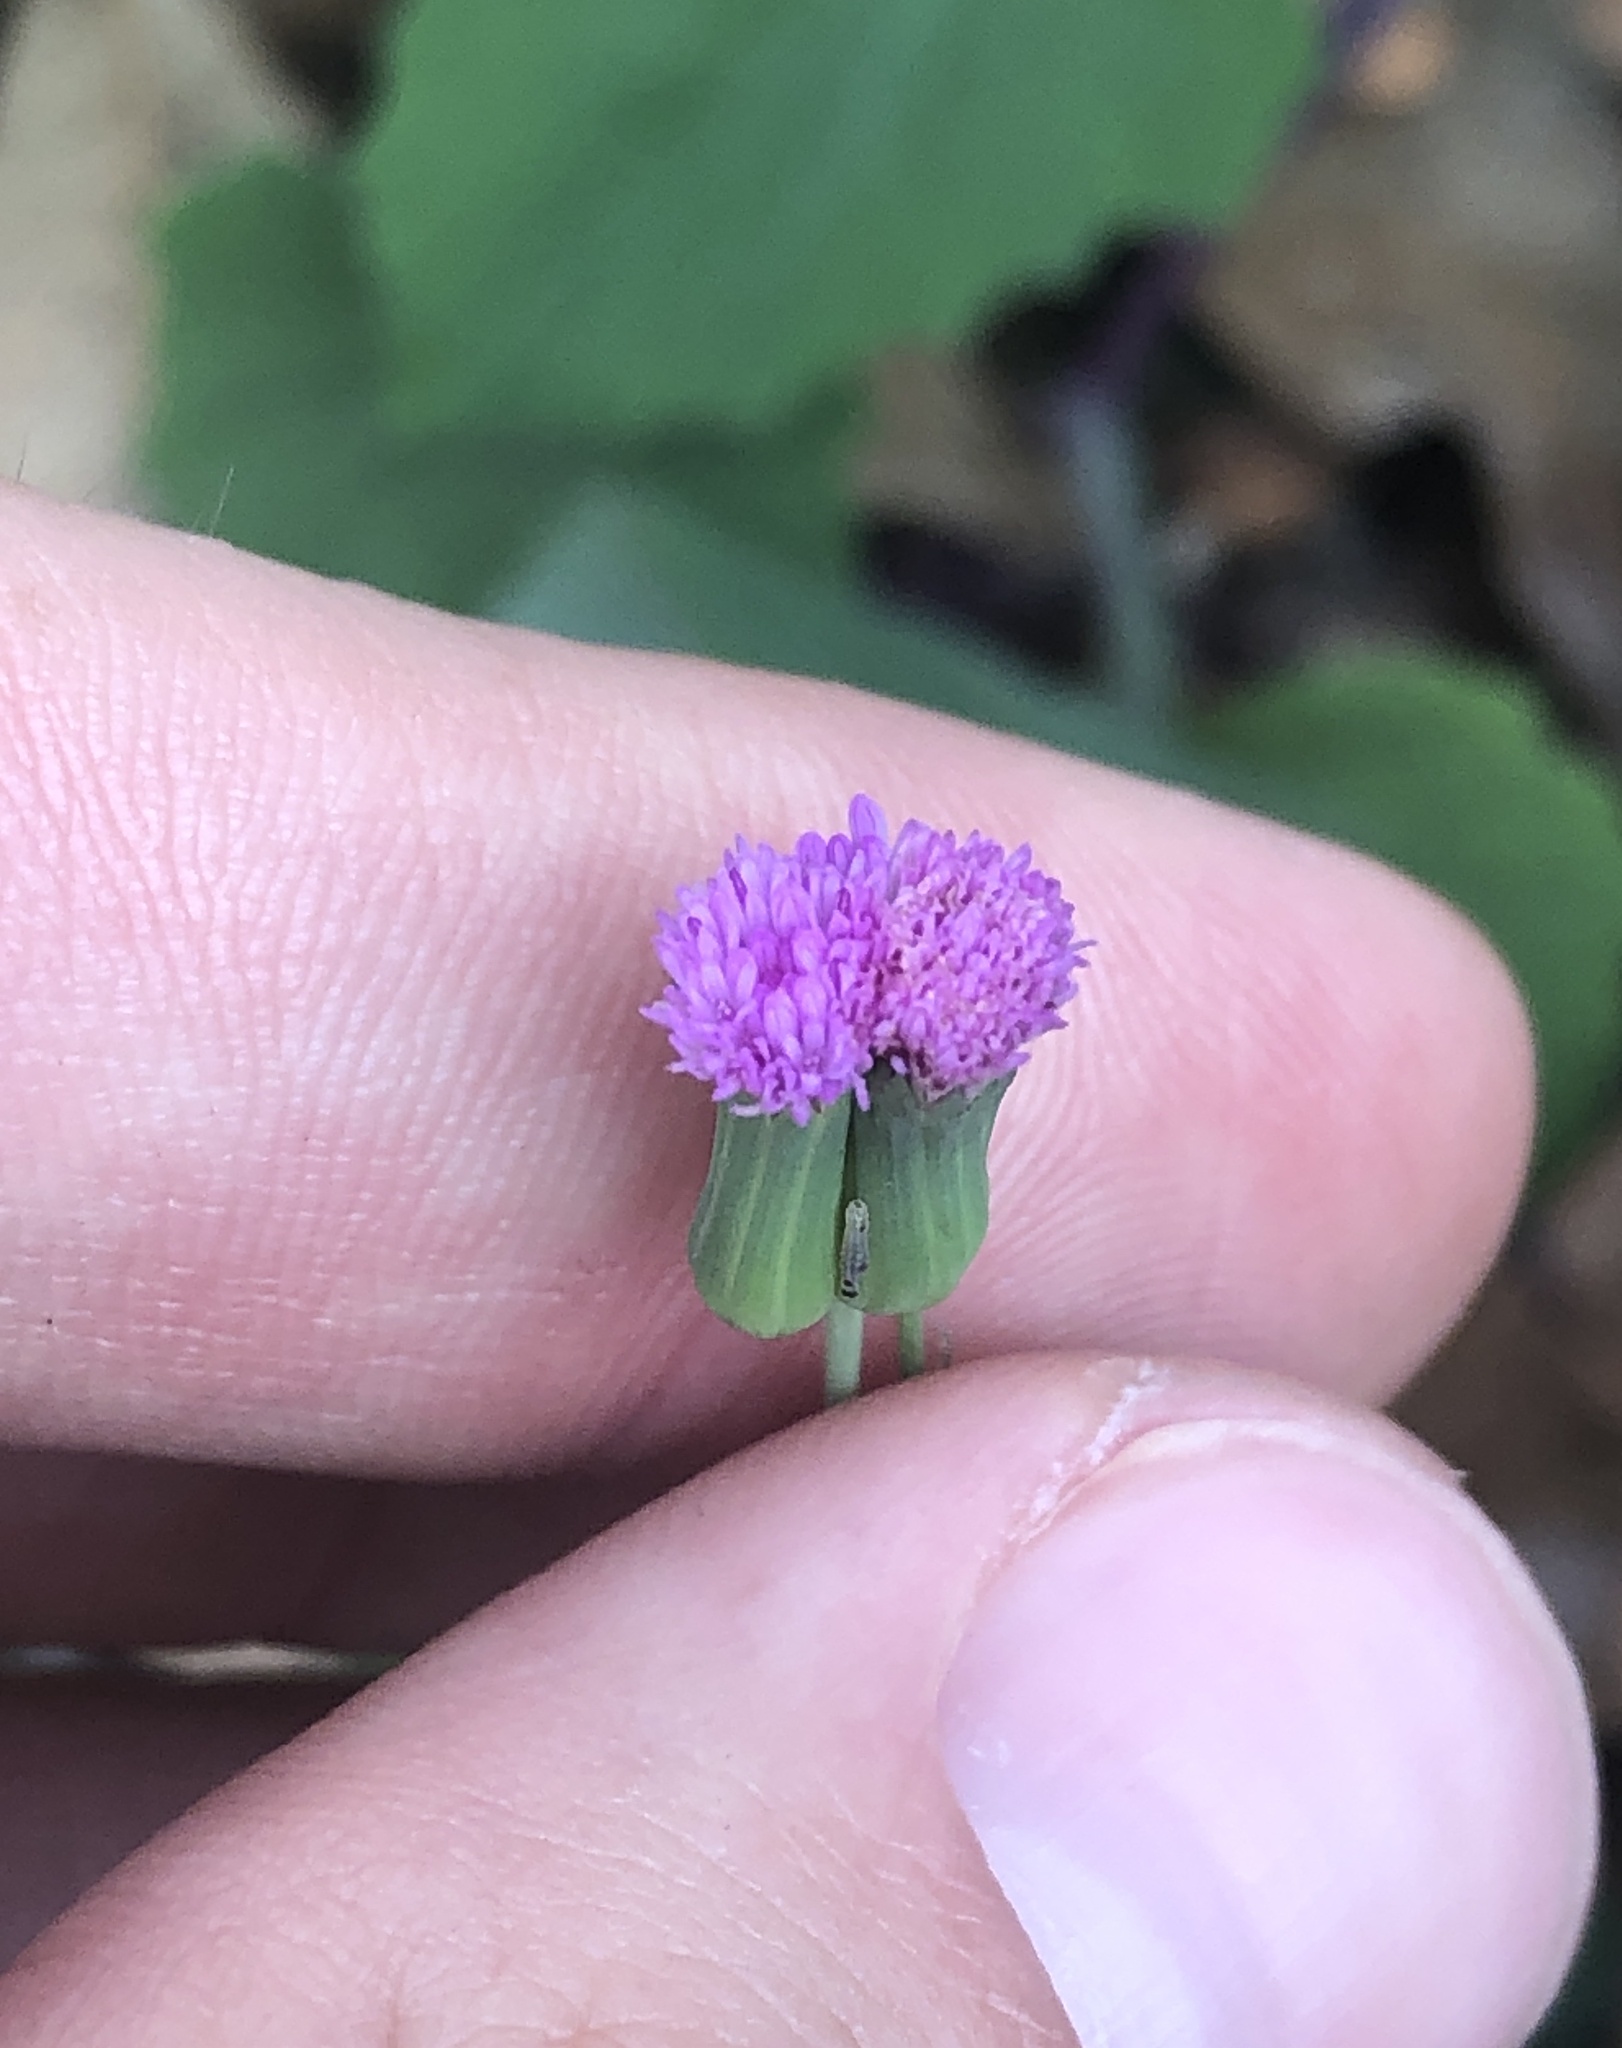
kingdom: Plantae
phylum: Tracheophyta
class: Magnoliopsida
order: Asterales
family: Asteraceae
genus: Emilia
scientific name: Emilia sonchifolia
